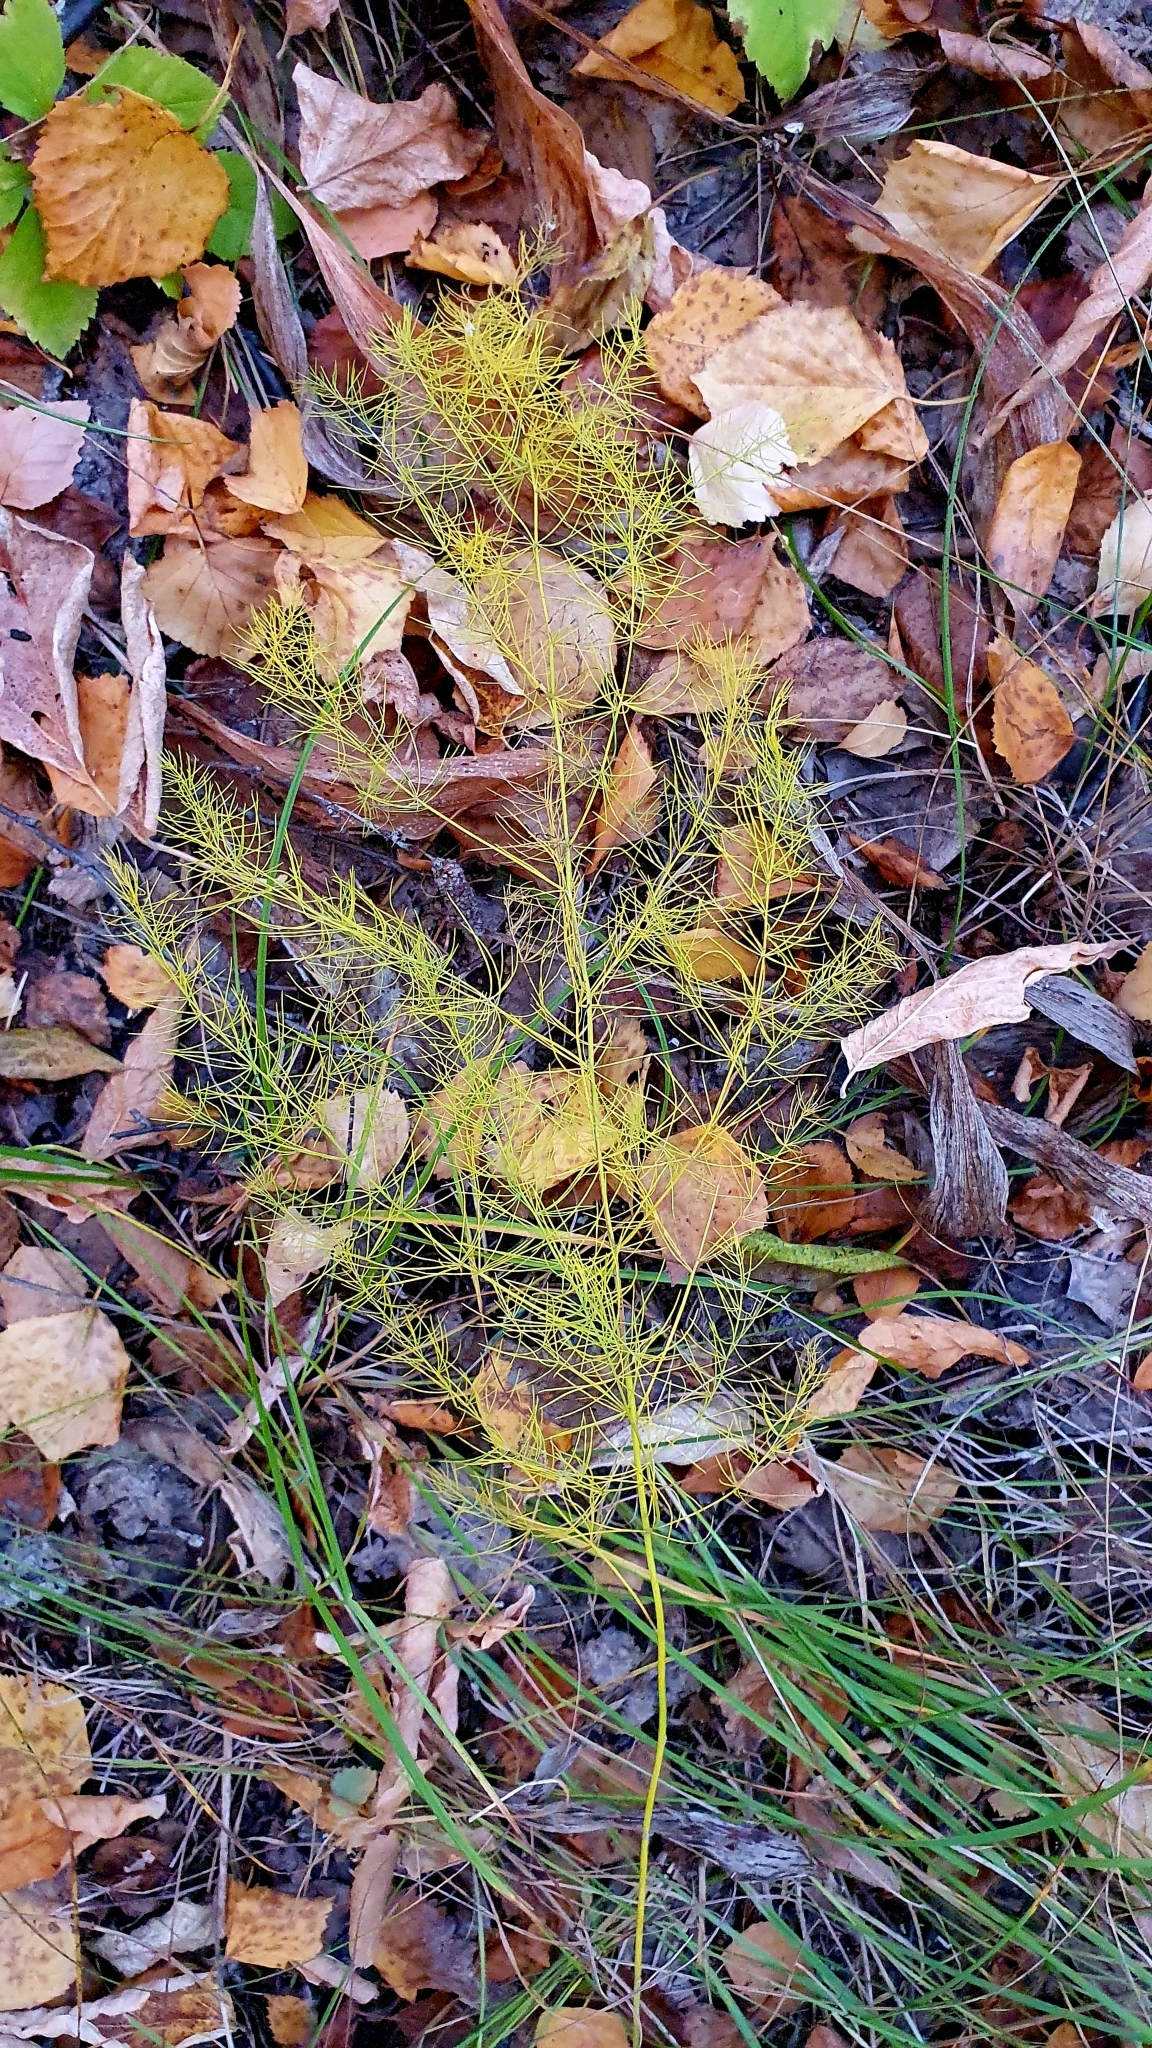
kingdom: Plantae
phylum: Tracheophyta
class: Liliopsida
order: Asparagales
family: Asparagaceae
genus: Asparagus
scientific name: Asparagus officinalis
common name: Garden asparagus
